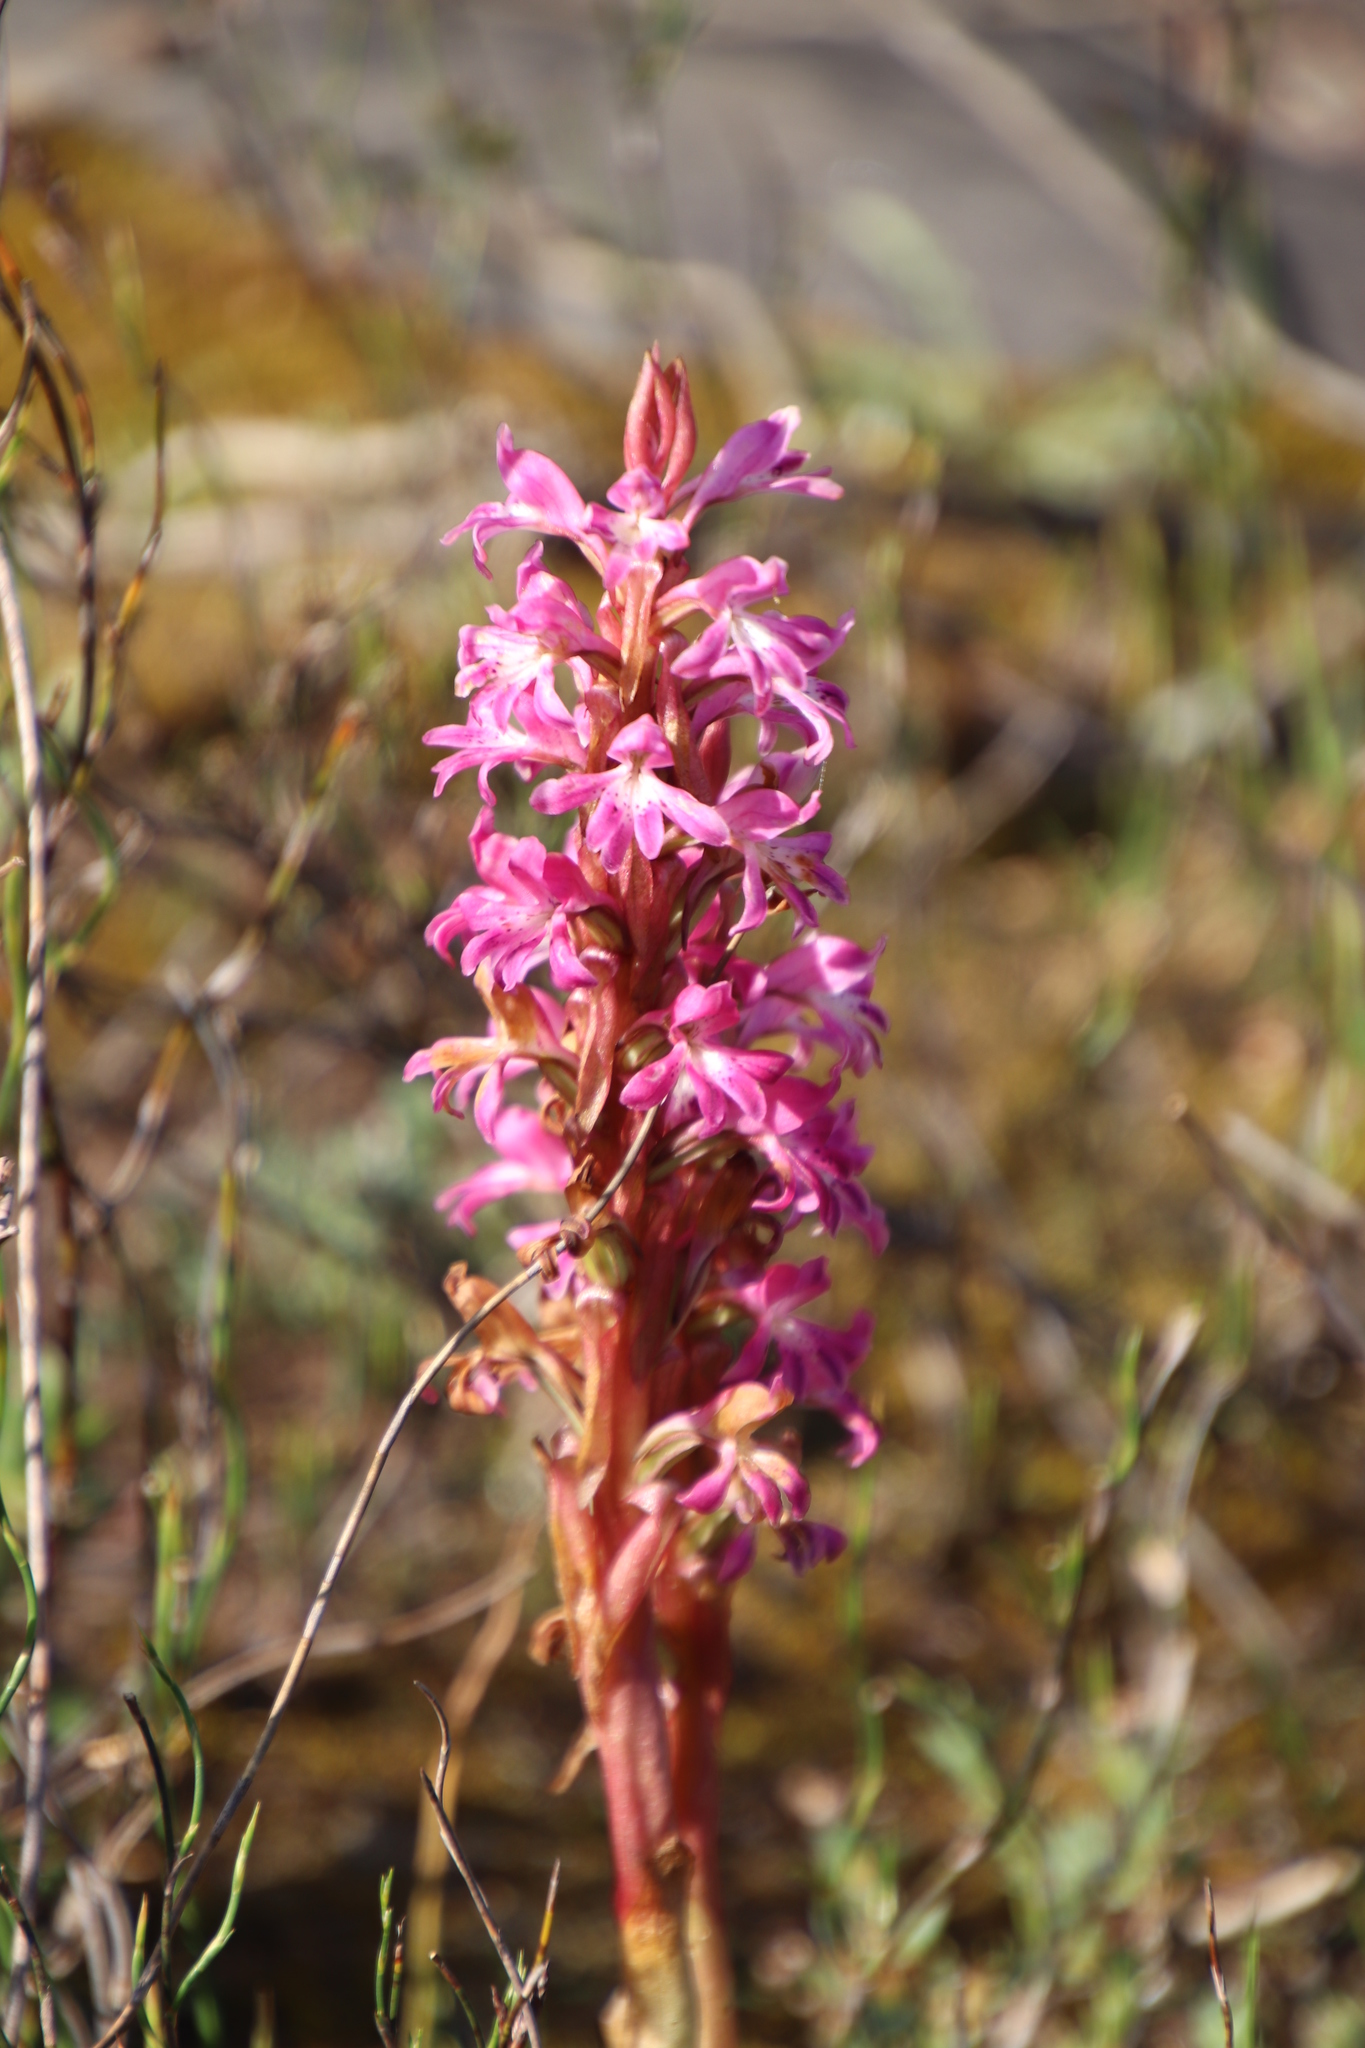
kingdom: Plantae
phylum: Tracheophyta
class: Liliopsida
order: Asparagales
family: Orchidaceae
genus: Satyrium
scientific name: Satyrium erectum
